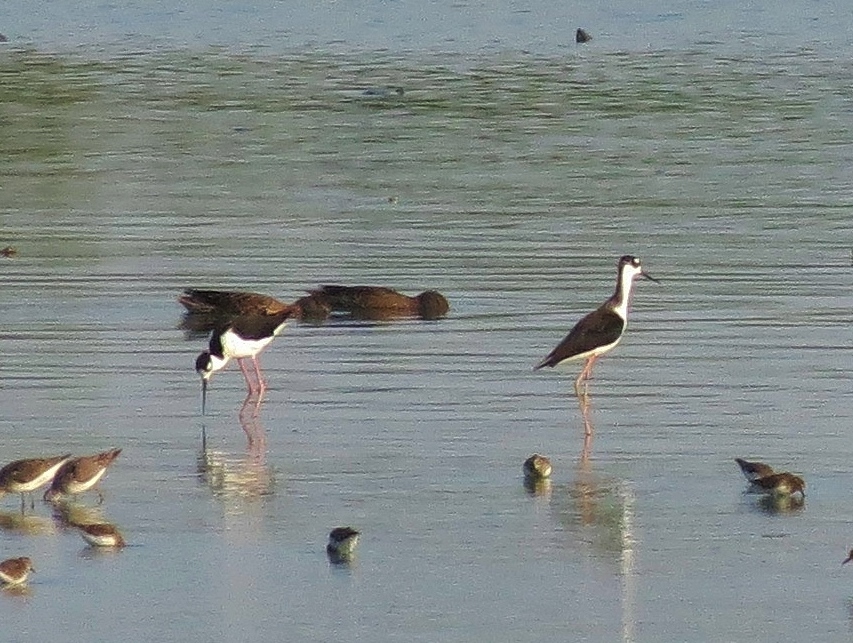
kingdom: Animalia
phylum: Chordata
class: Aves
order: Charadriiformes
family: Recurvirostridae
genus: Himantopus
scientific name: Himantopus mexicanus
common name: Black-necked stilt
